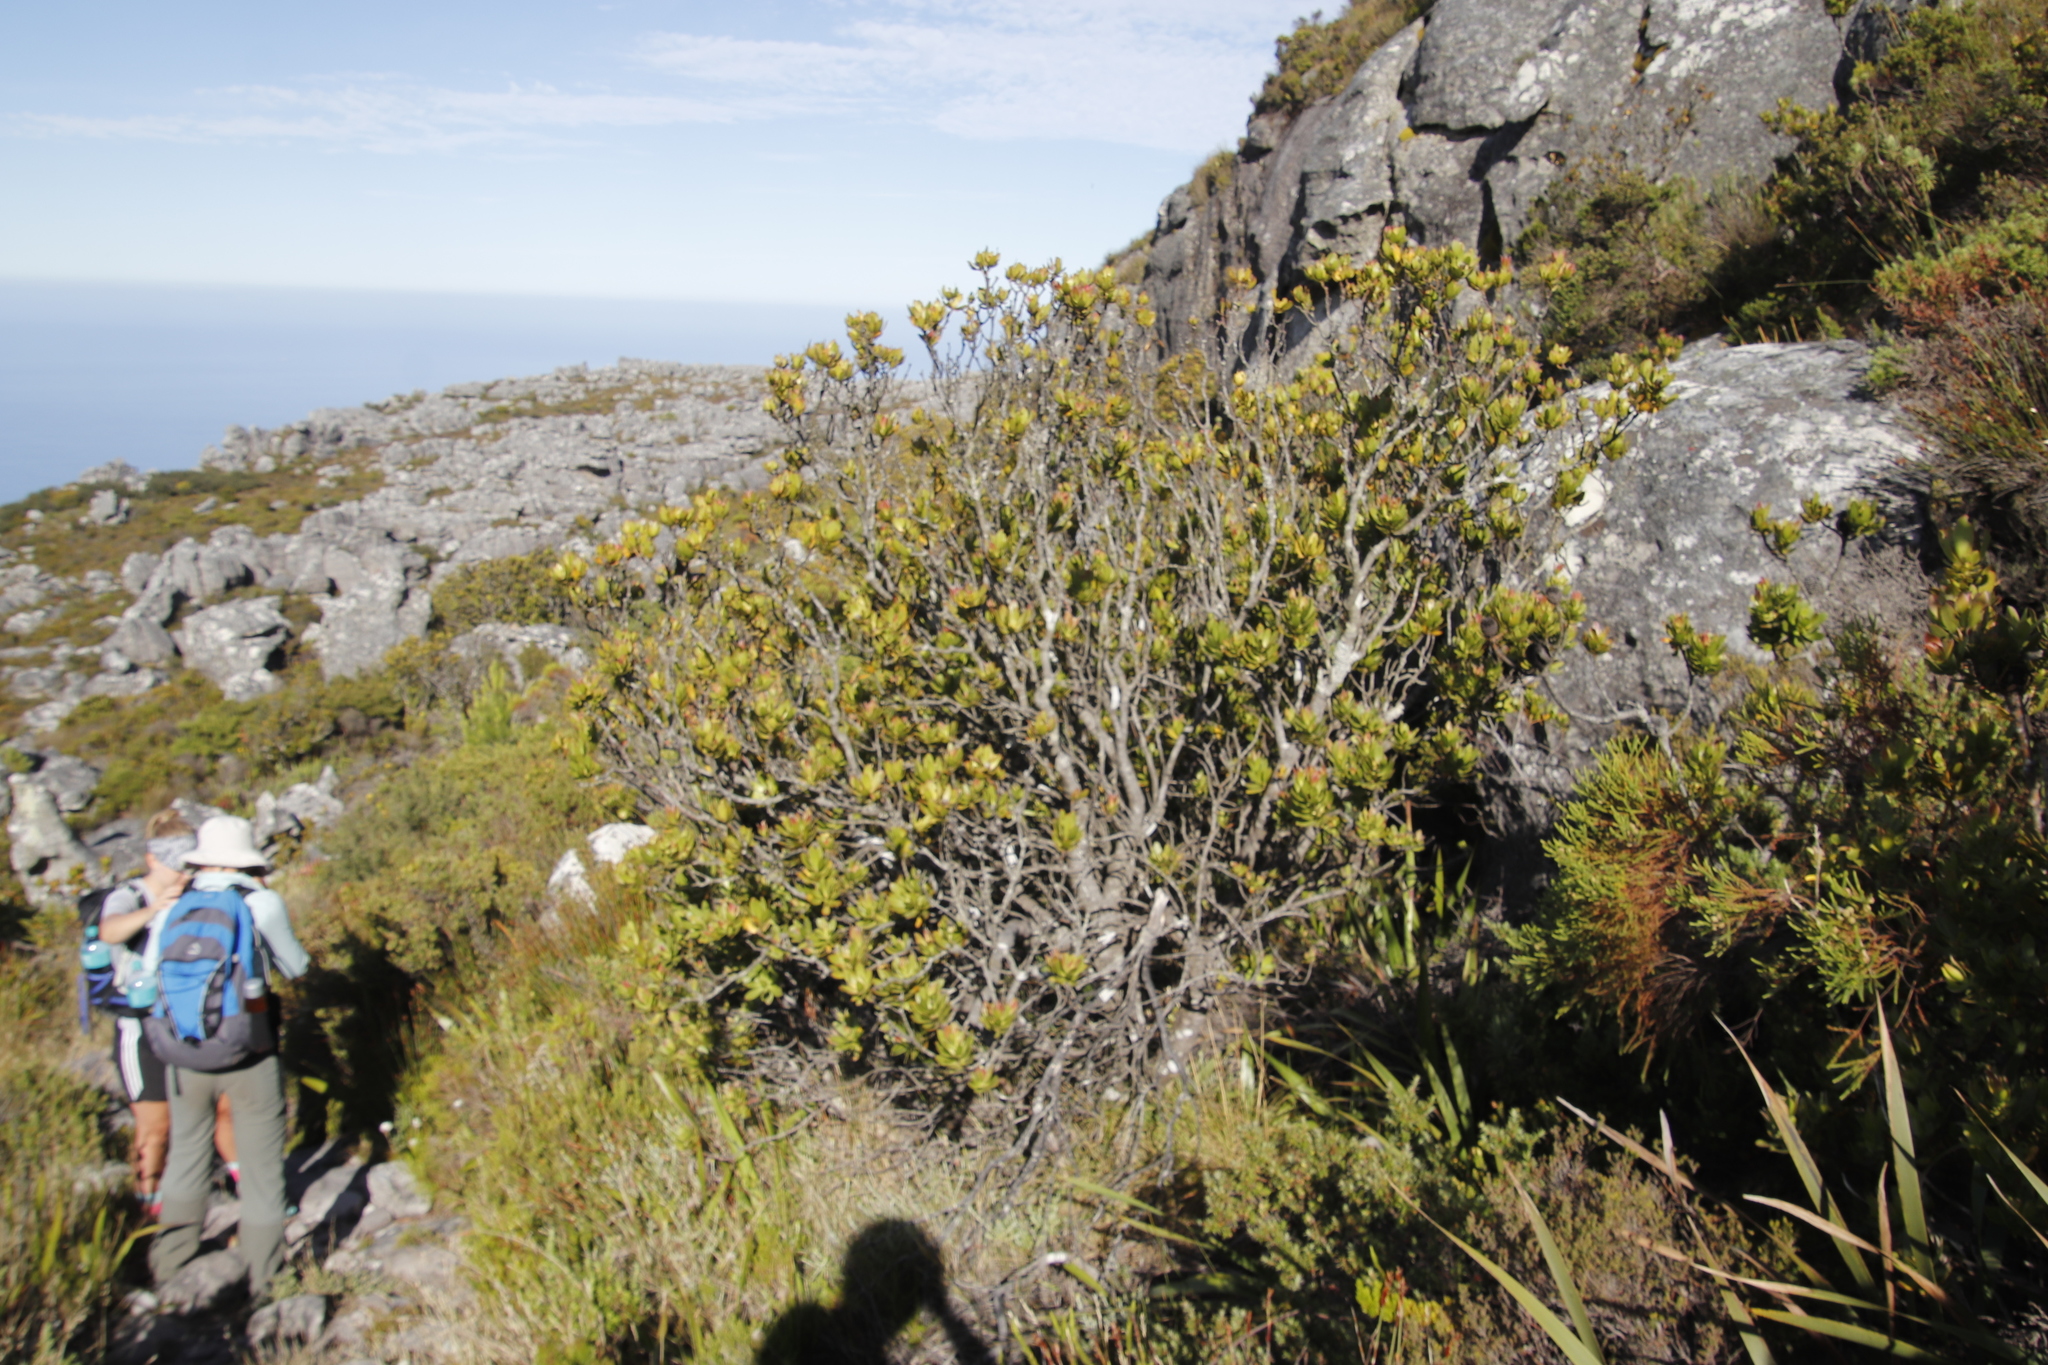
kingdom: Plantae
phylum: Tracheophyta
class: Magnoliopsida
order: Proteales
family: Proteaceae
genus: Leucadendron
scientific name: Leucadendron strobilinum
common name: Mountain rose
